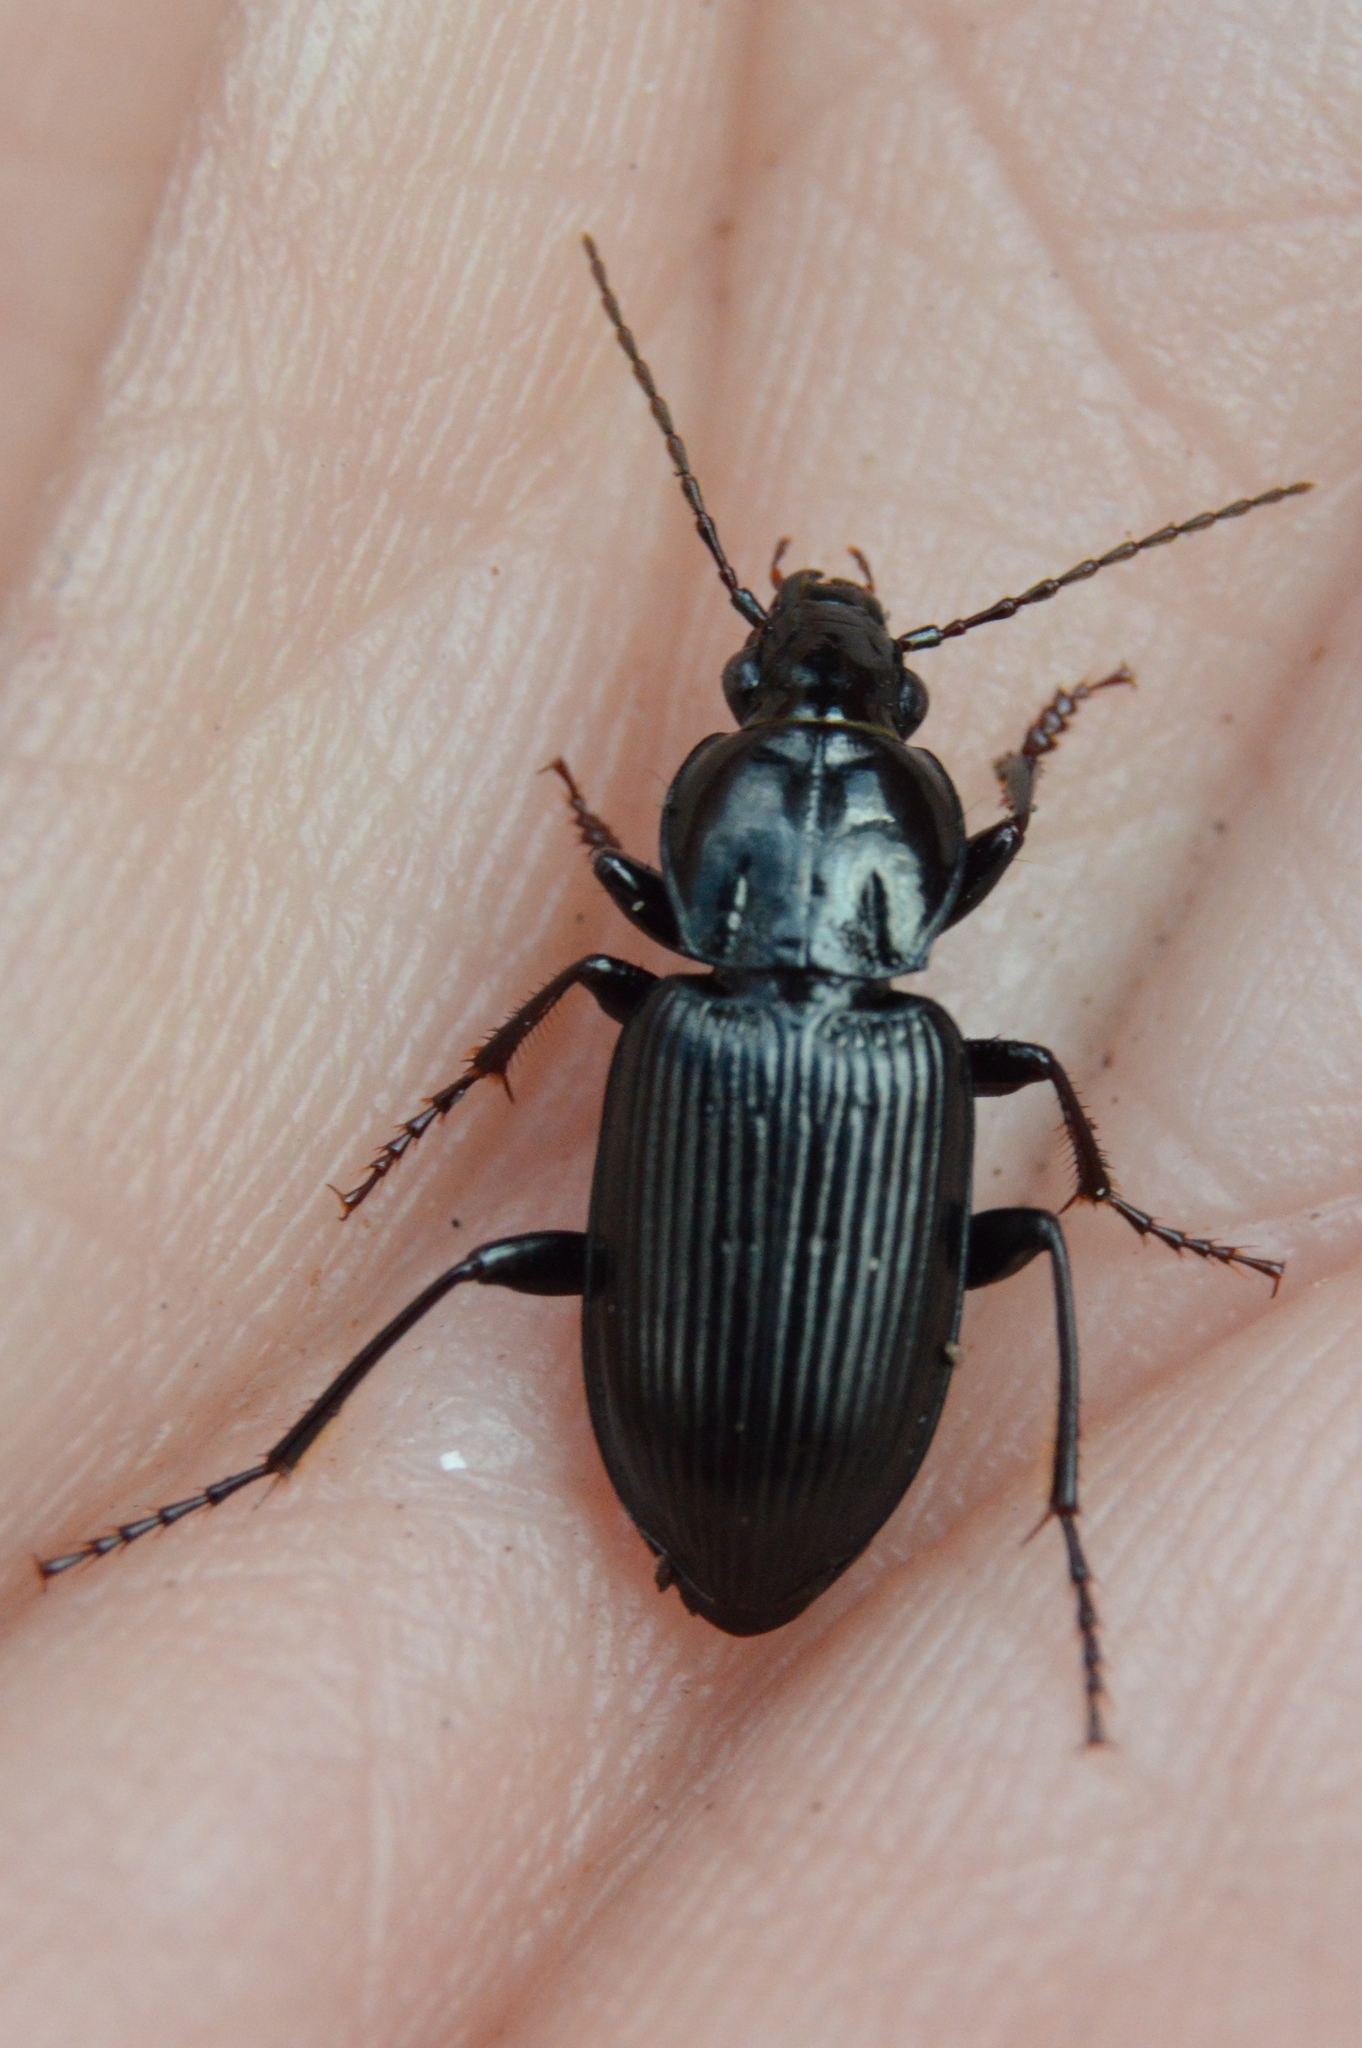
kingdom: Animalia
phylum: Arthropoda
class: Insecta
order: Coleoptera
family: Carabidae
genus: Pterostichus
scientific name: Pterostichus mutus
